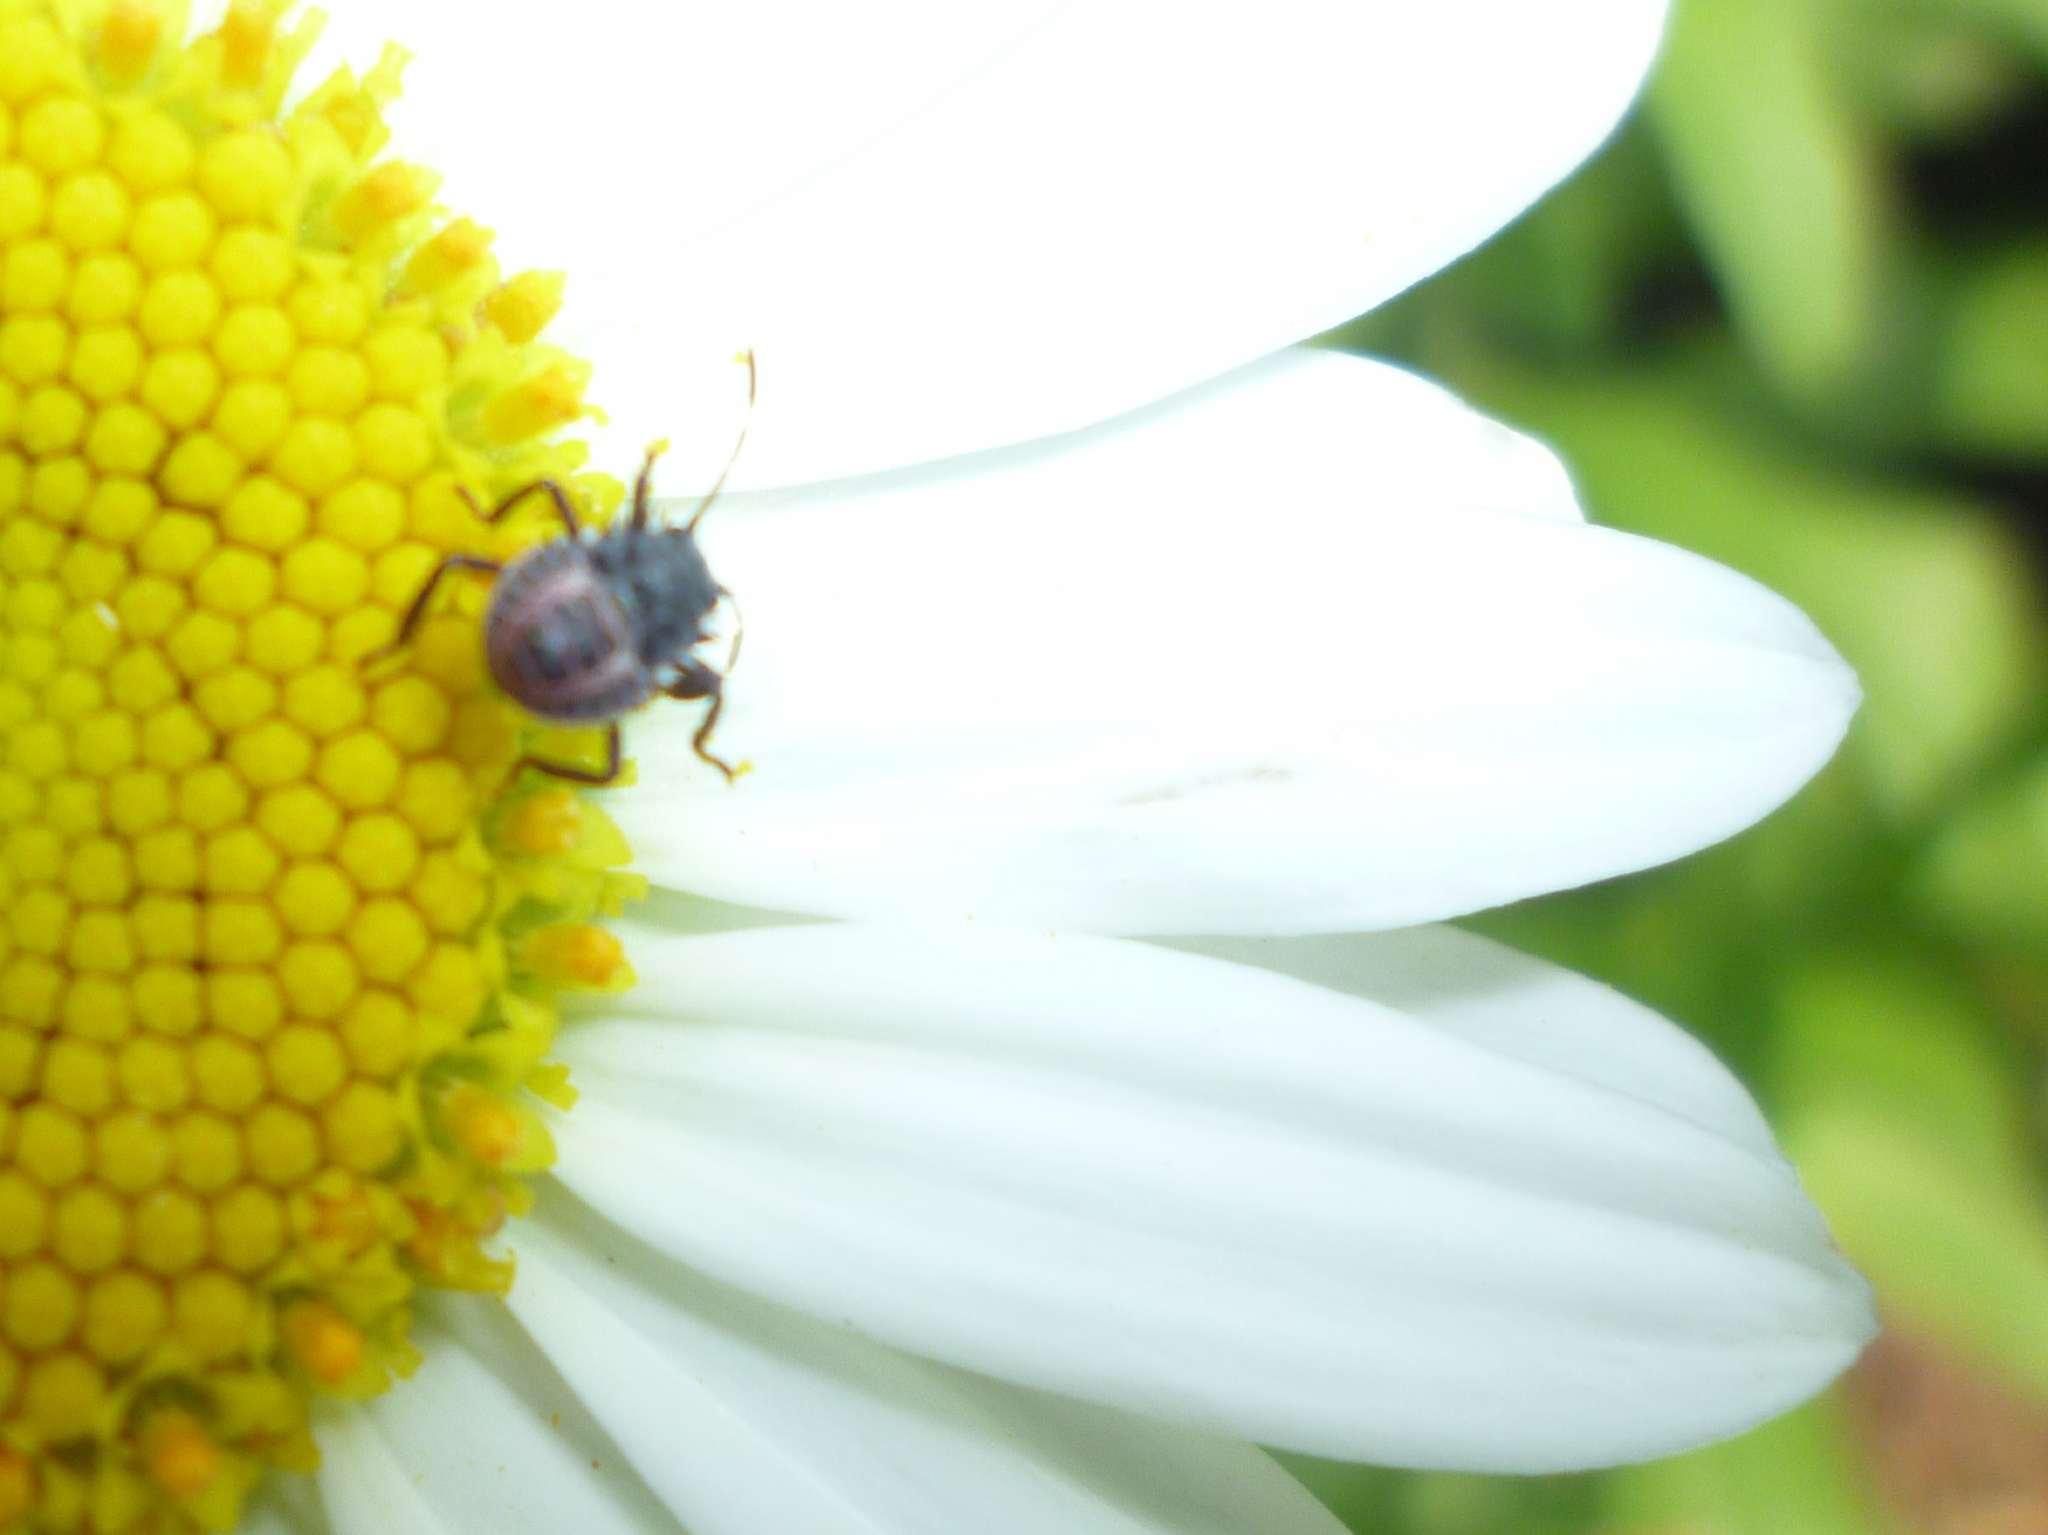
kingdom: Animalia
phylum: Arthropoda
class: Insecta
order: Hemiptera
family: Pentatomidae
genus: Halyomorpha
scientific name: Halyomorpha halys
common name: Brown marmorated stink bug
